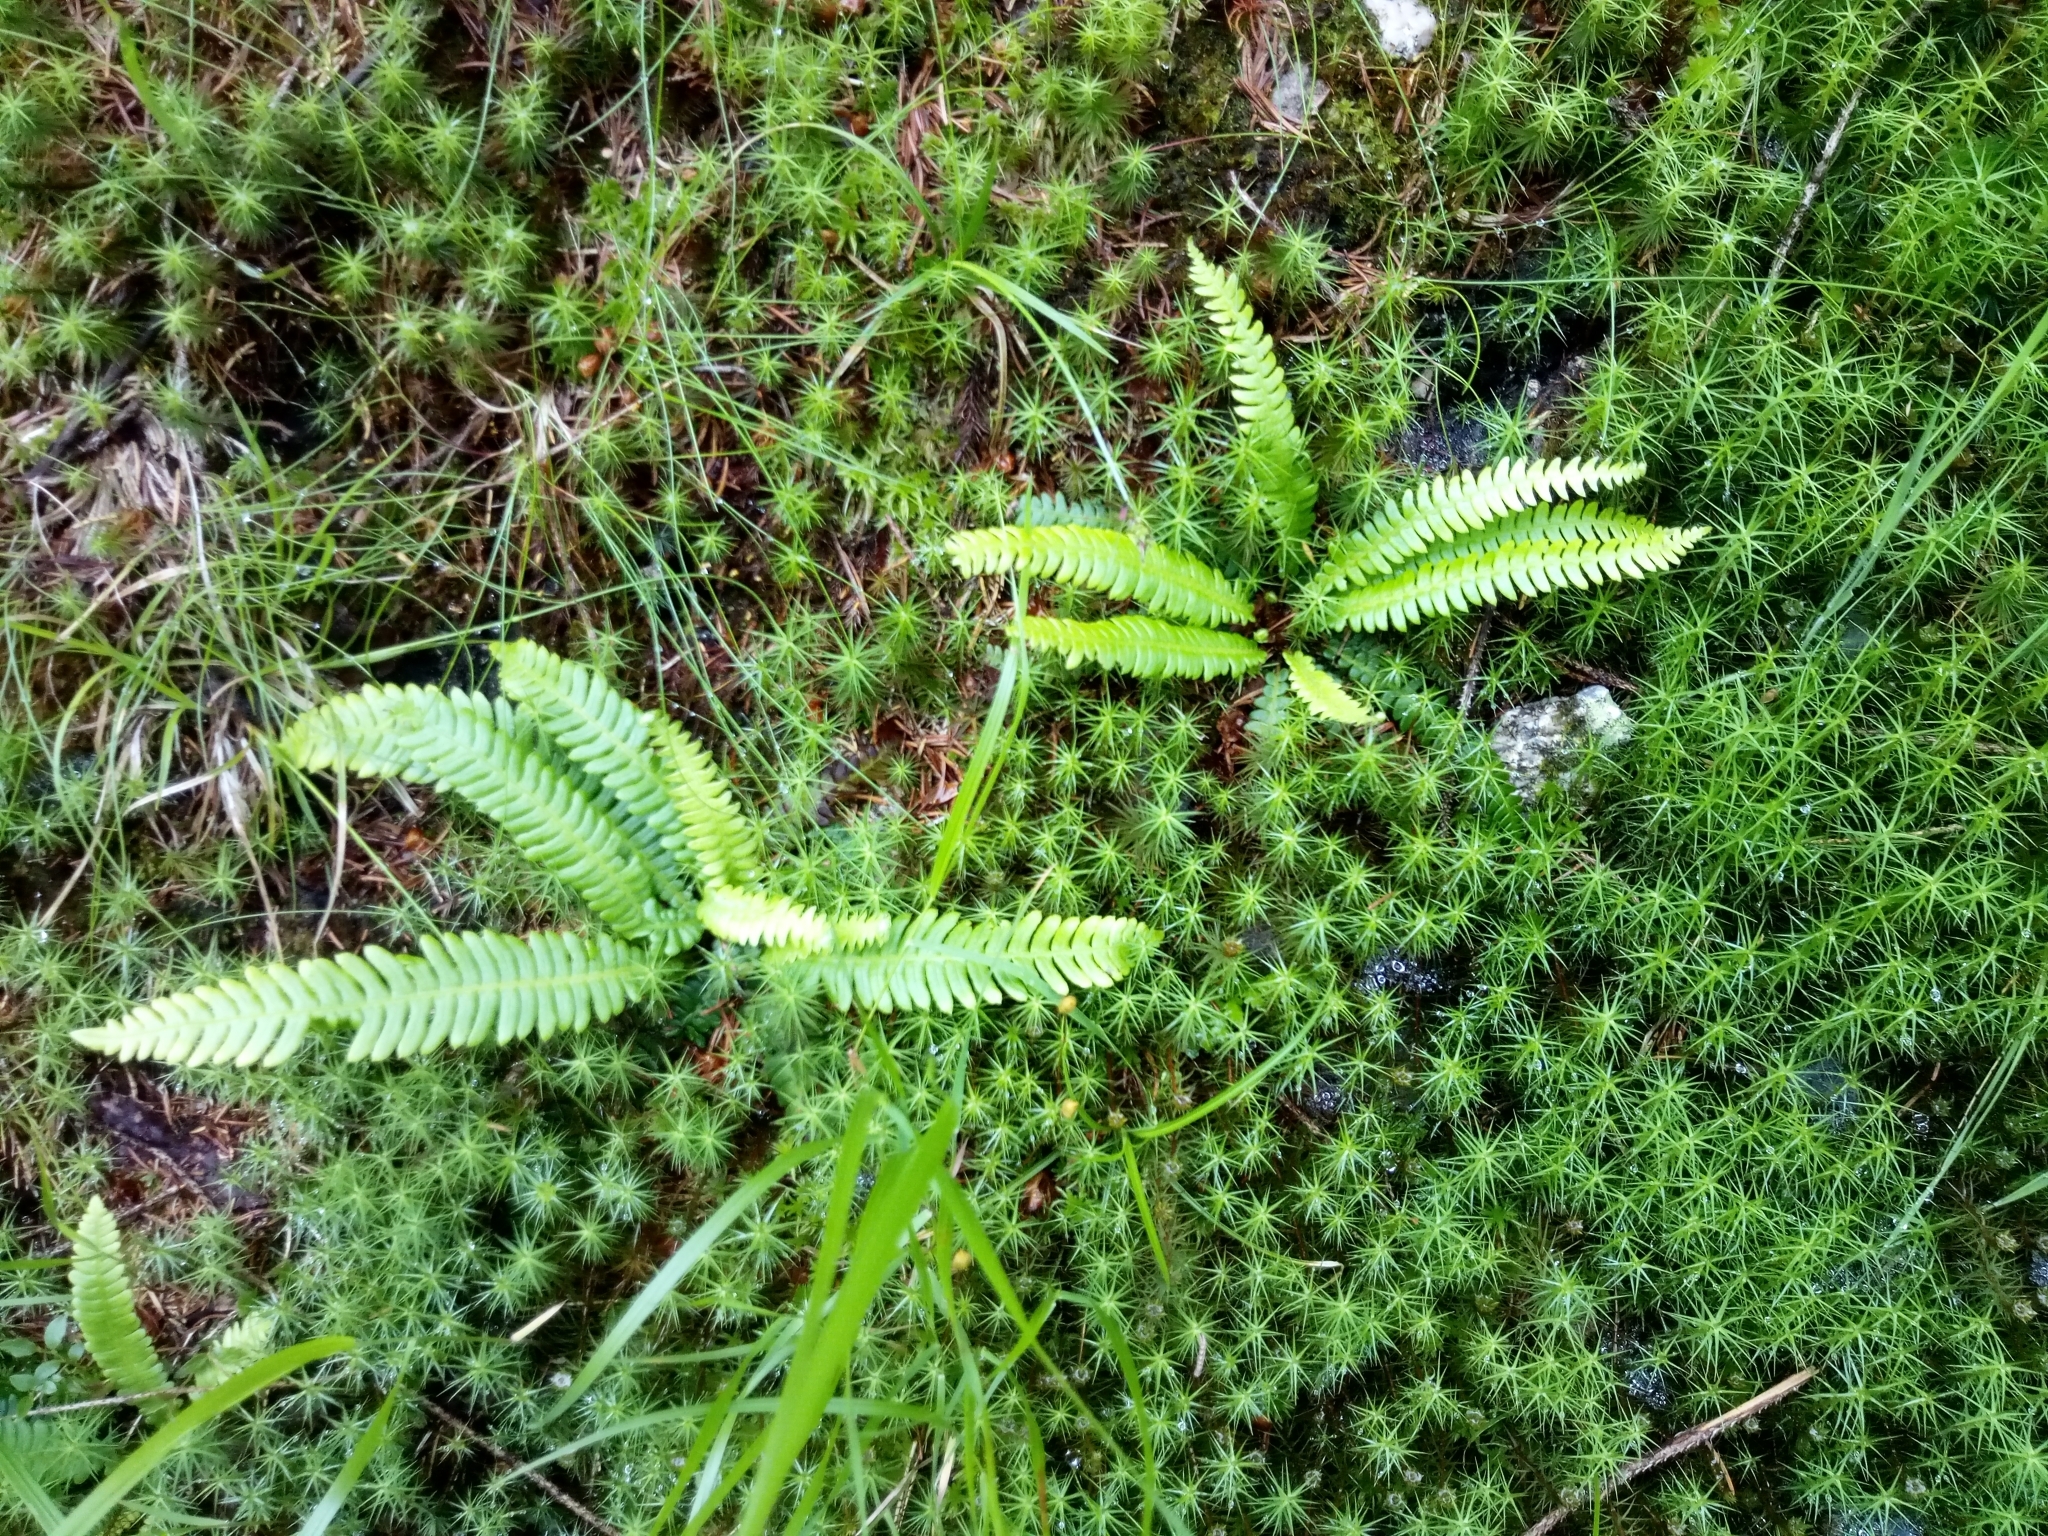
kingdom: Plantae
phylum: Tracheophyta
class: Polypodiopsida
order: Polypodiales
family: Blechnaceae
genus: Struthiopteris
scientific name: Struthiopteris spicant
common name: Deer fern
